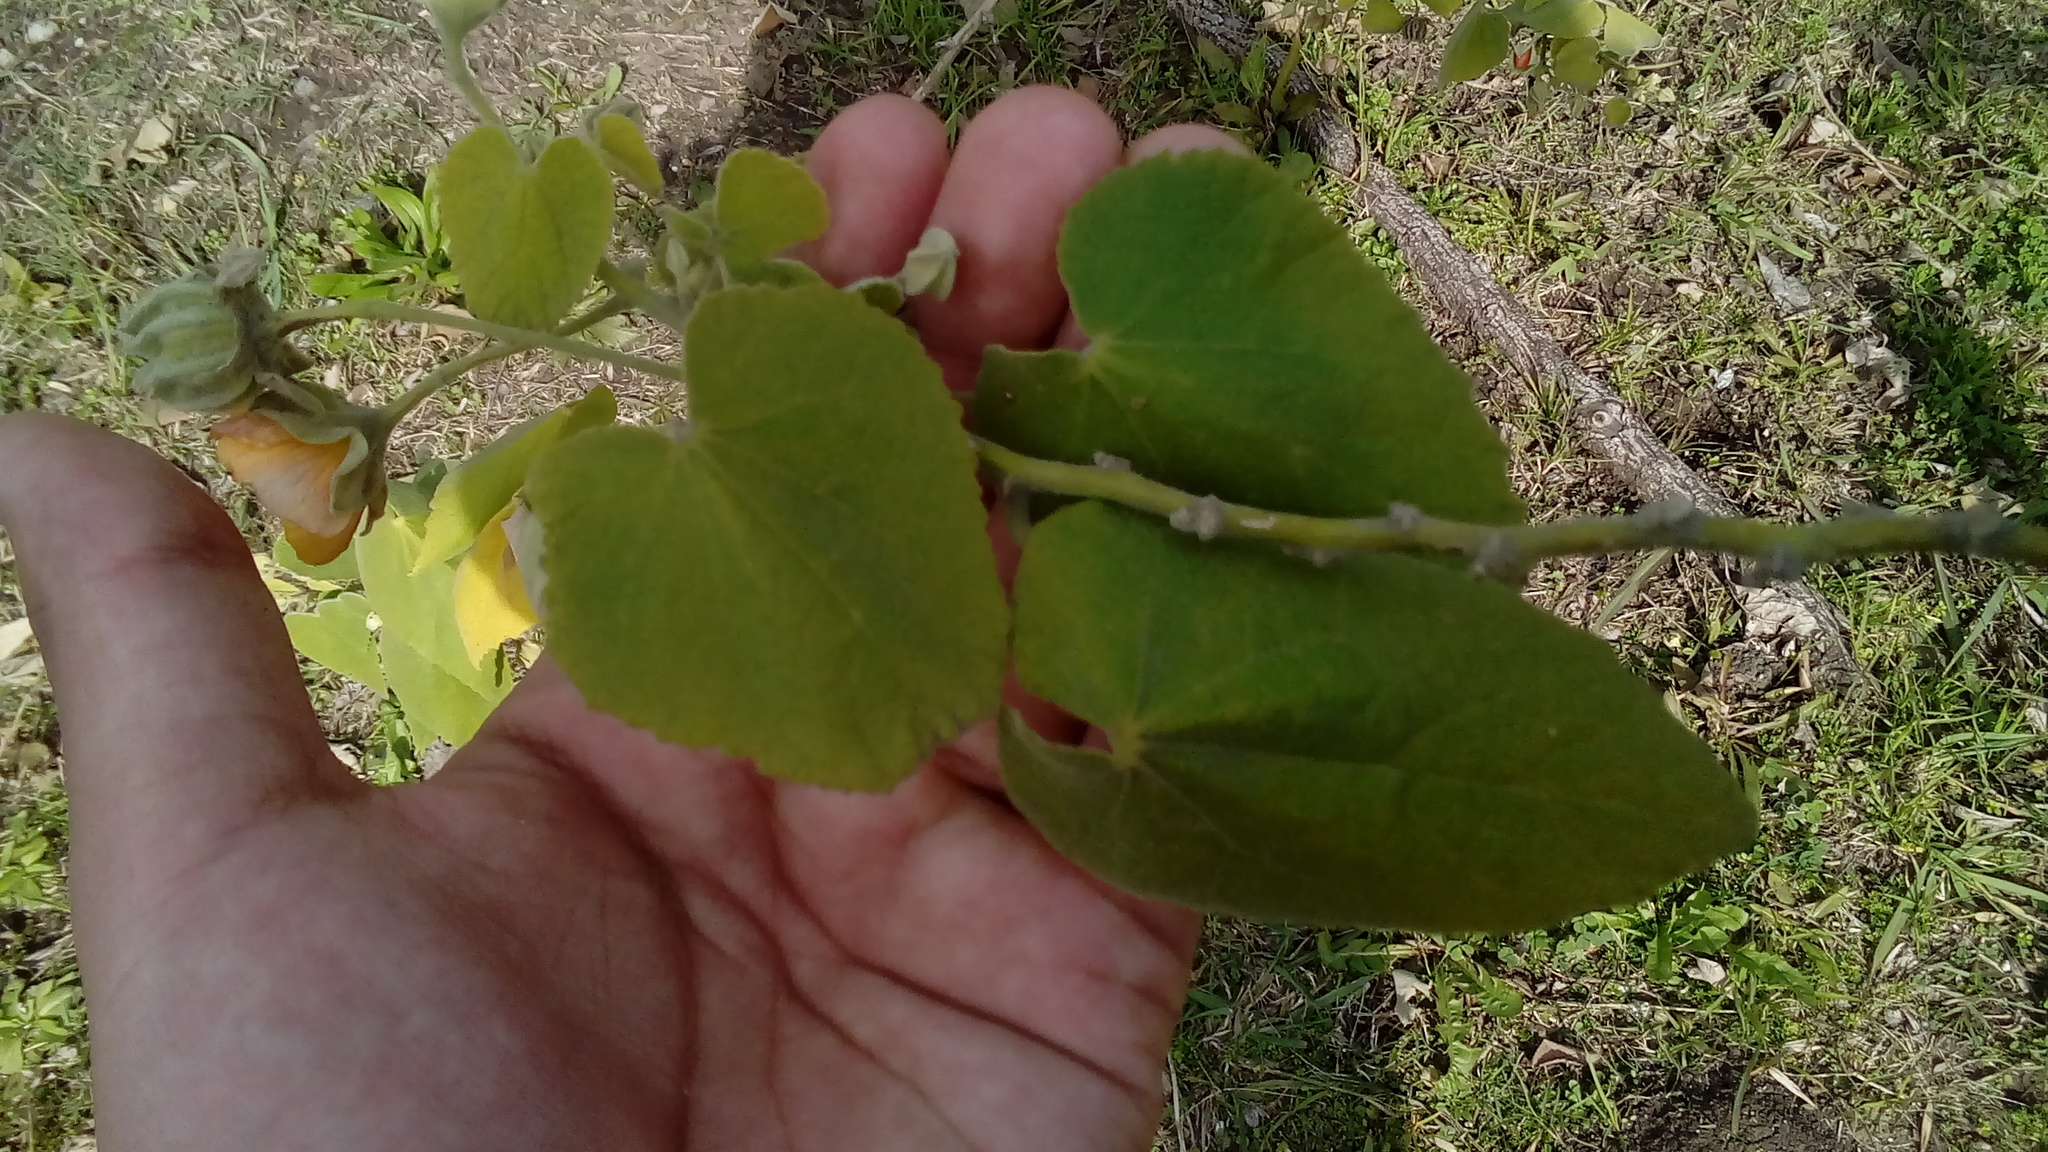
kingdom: Plantae
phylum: Tracheophyta
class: Magnoliopsida
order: Malvales
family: Malvaceae
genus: Abutilon
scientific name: Abutilon grandifolium
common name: Hairy abutilon
